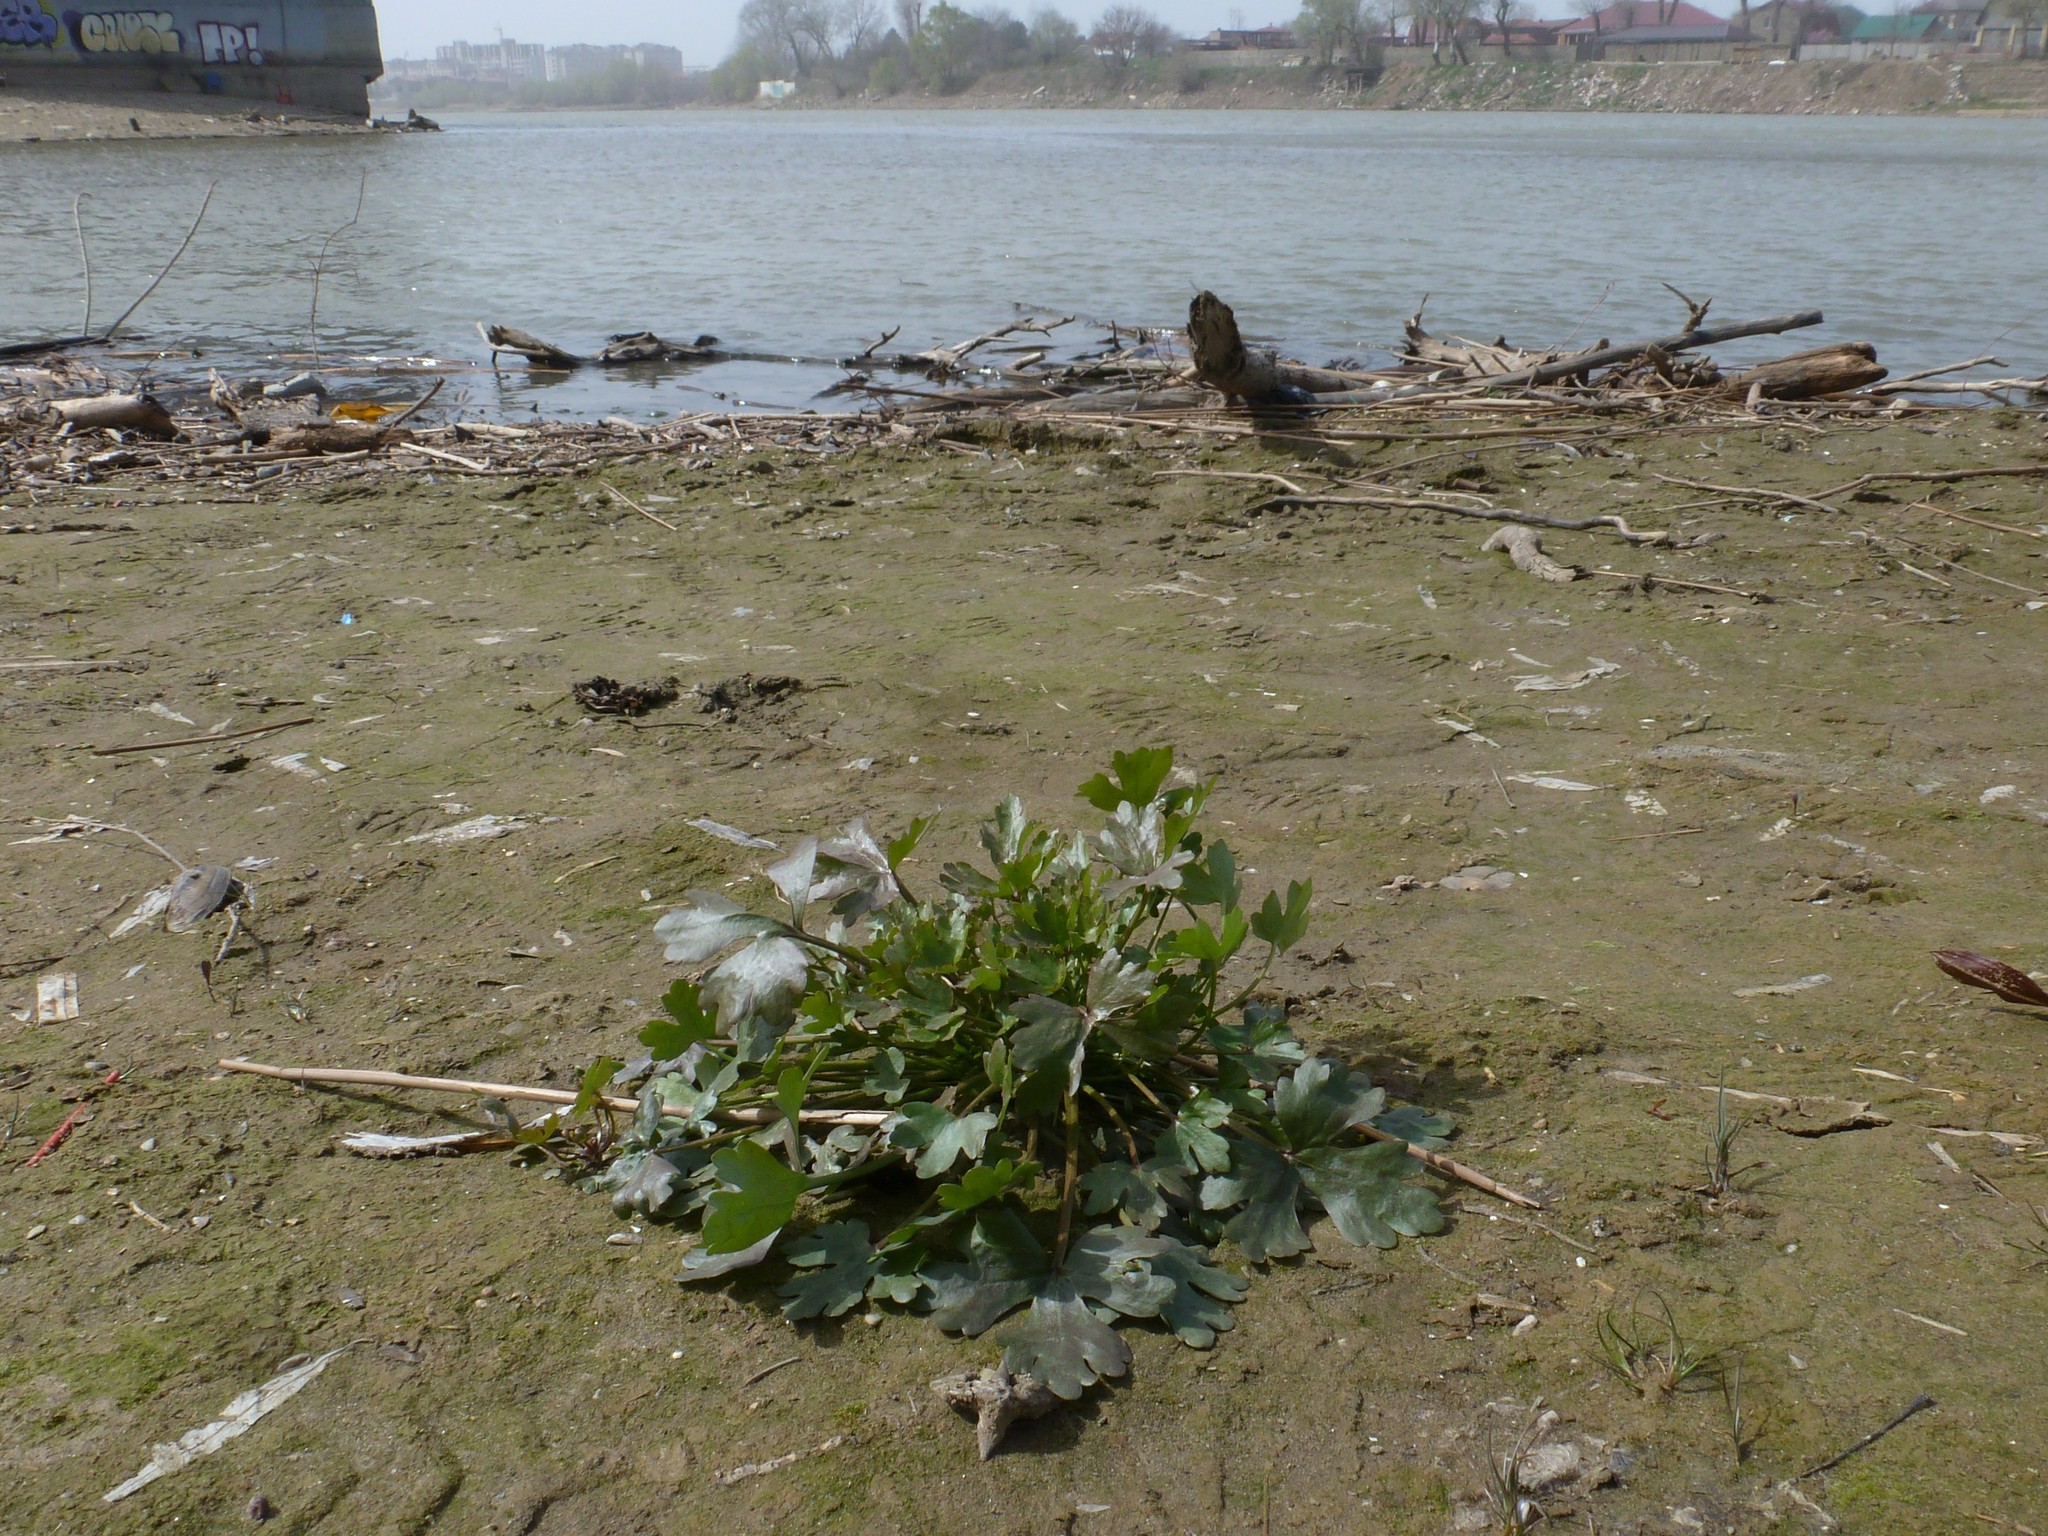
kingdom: Plantae
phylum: Tracheophyta
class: Magnoliopsida
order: Ranunculales
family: Ranunculaceae
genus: Ranunculus
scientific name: Ranunculus sceleratus
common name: Celery-leaved buttercup
